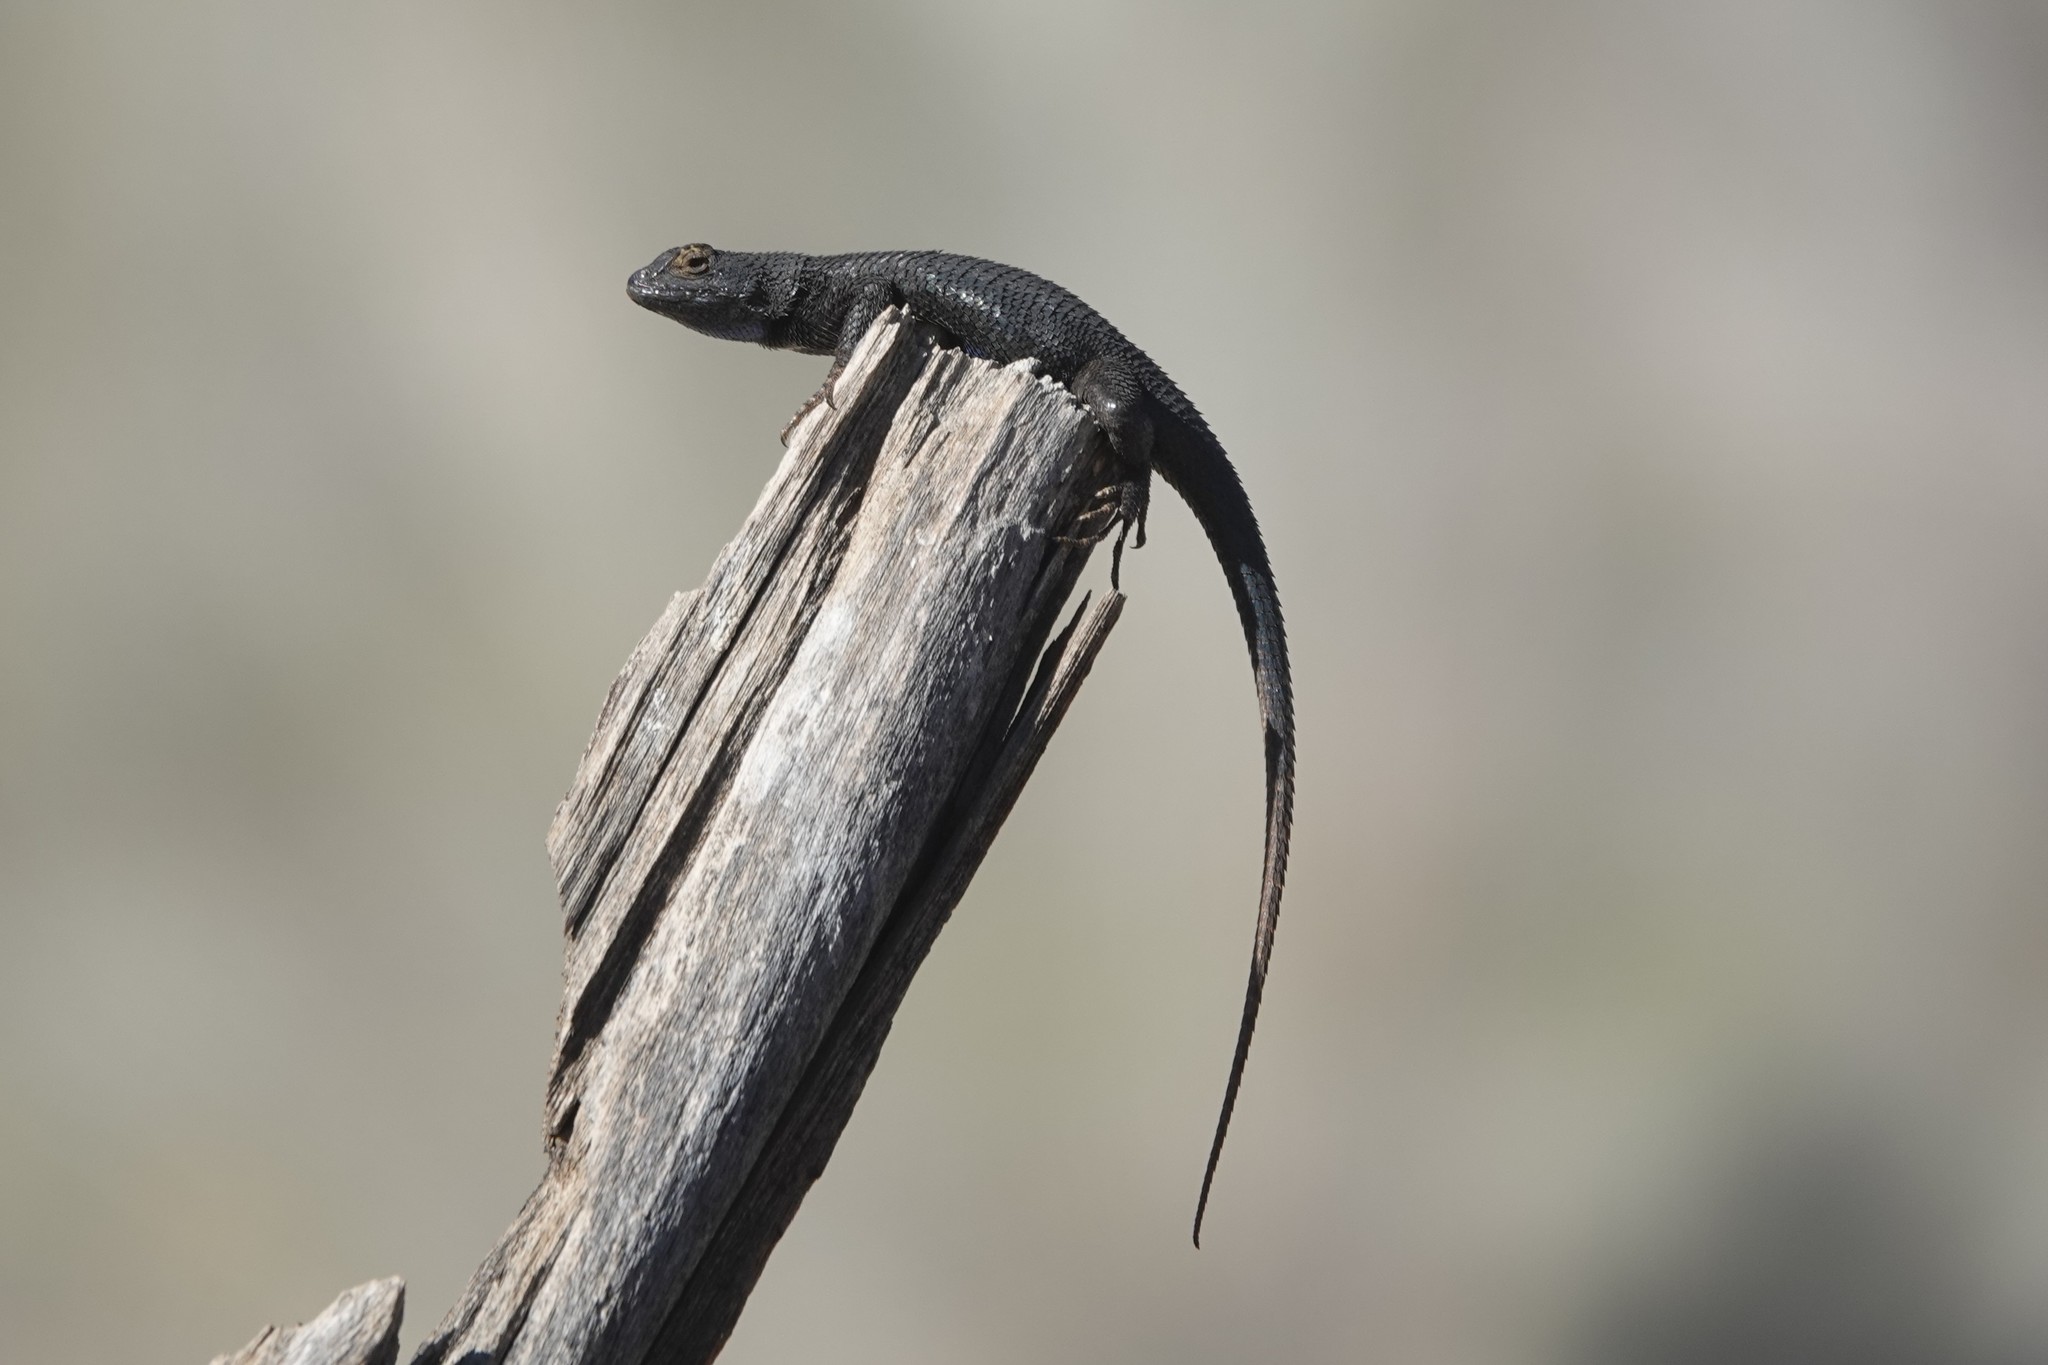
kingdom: Animalia
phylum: Chordata
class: Squamata
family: Phrynosomatidae
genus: Sceloporus
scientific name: Sceloporus occidentalis
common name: Western fence lizard
